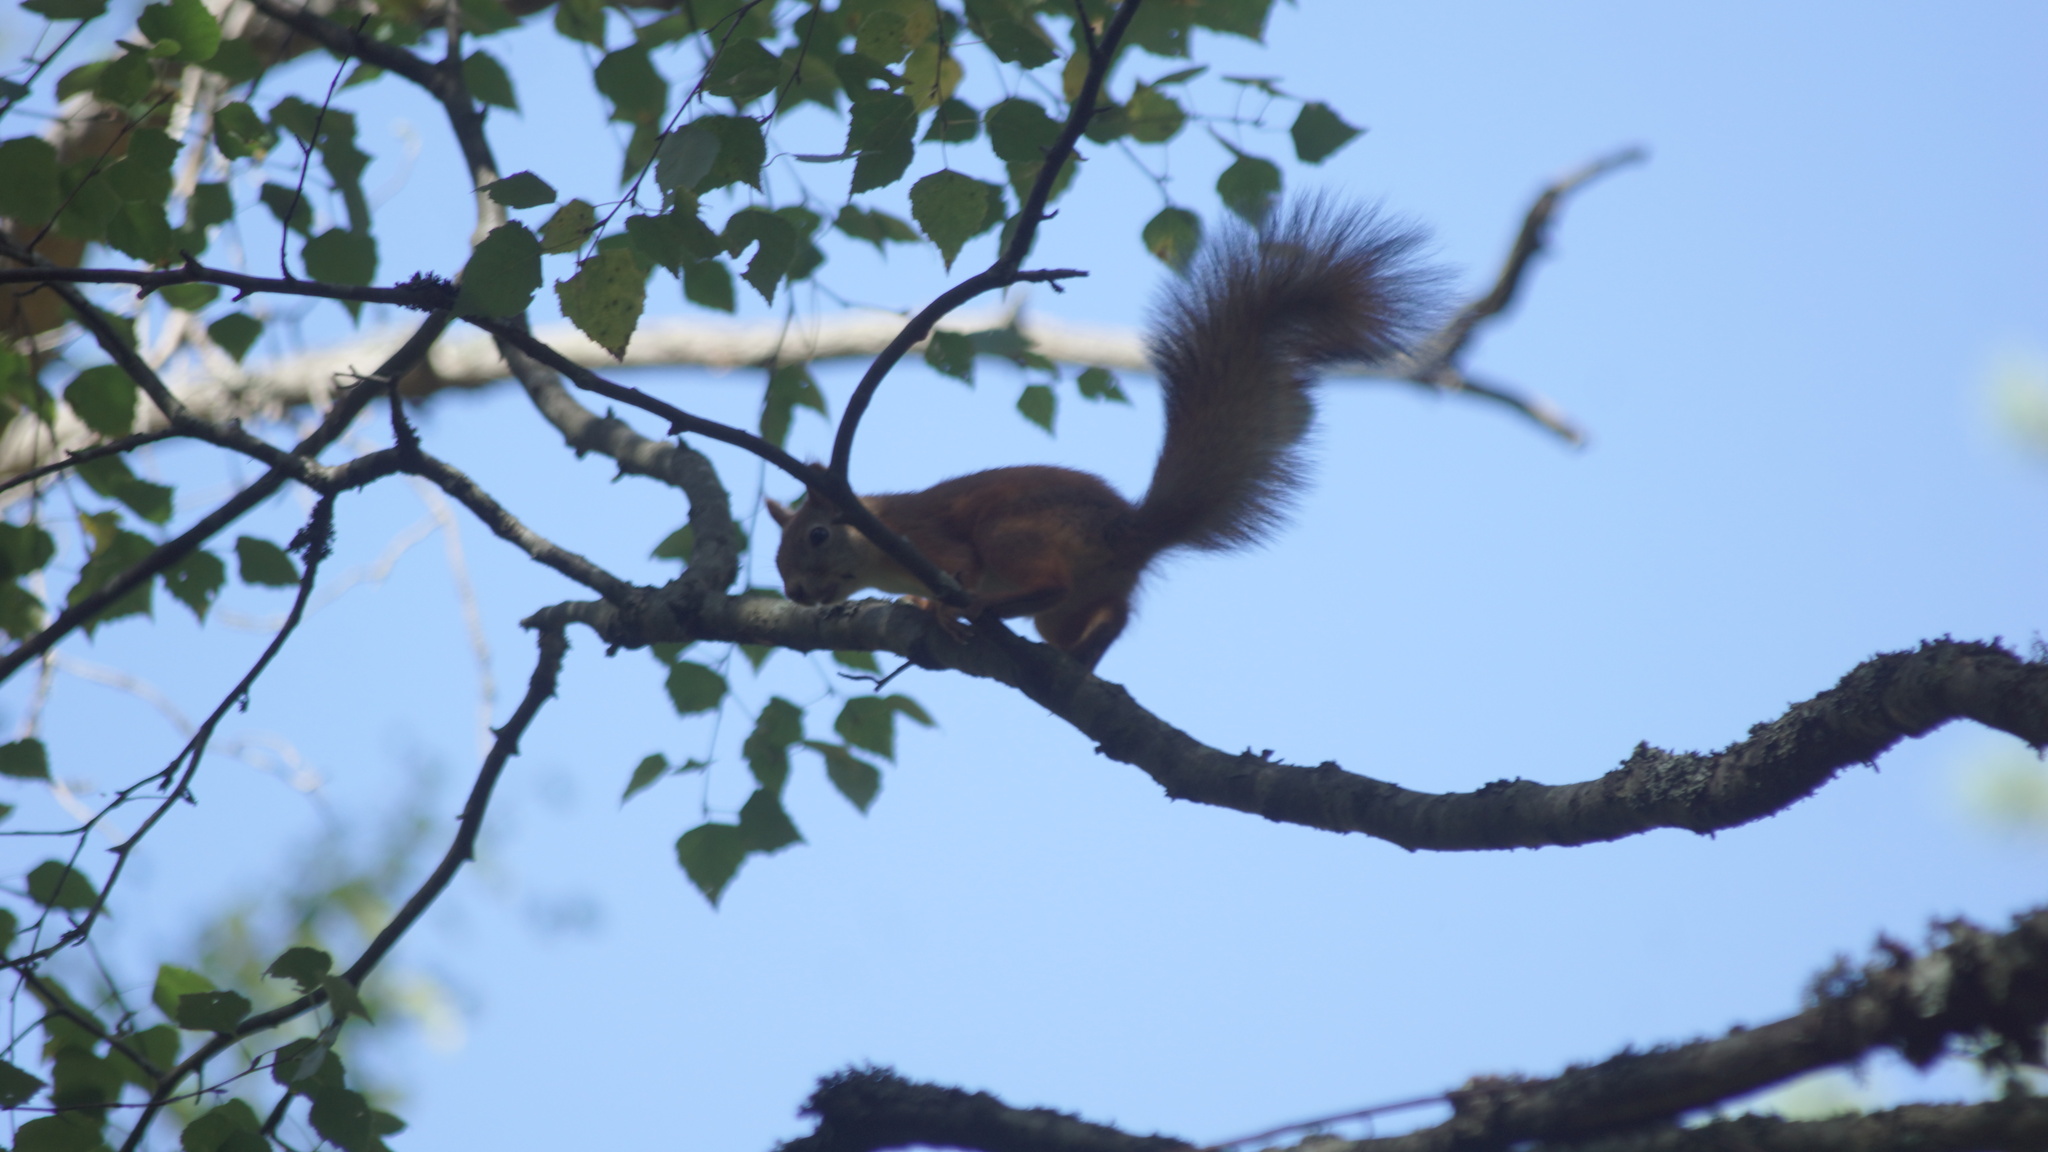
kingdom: Animalia
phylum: Chordata
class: Mammalia
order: Rodentia
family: Sciuridae
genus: Sciurus
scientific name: Sciurus vulgaris
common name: Eurasian red squirrel
